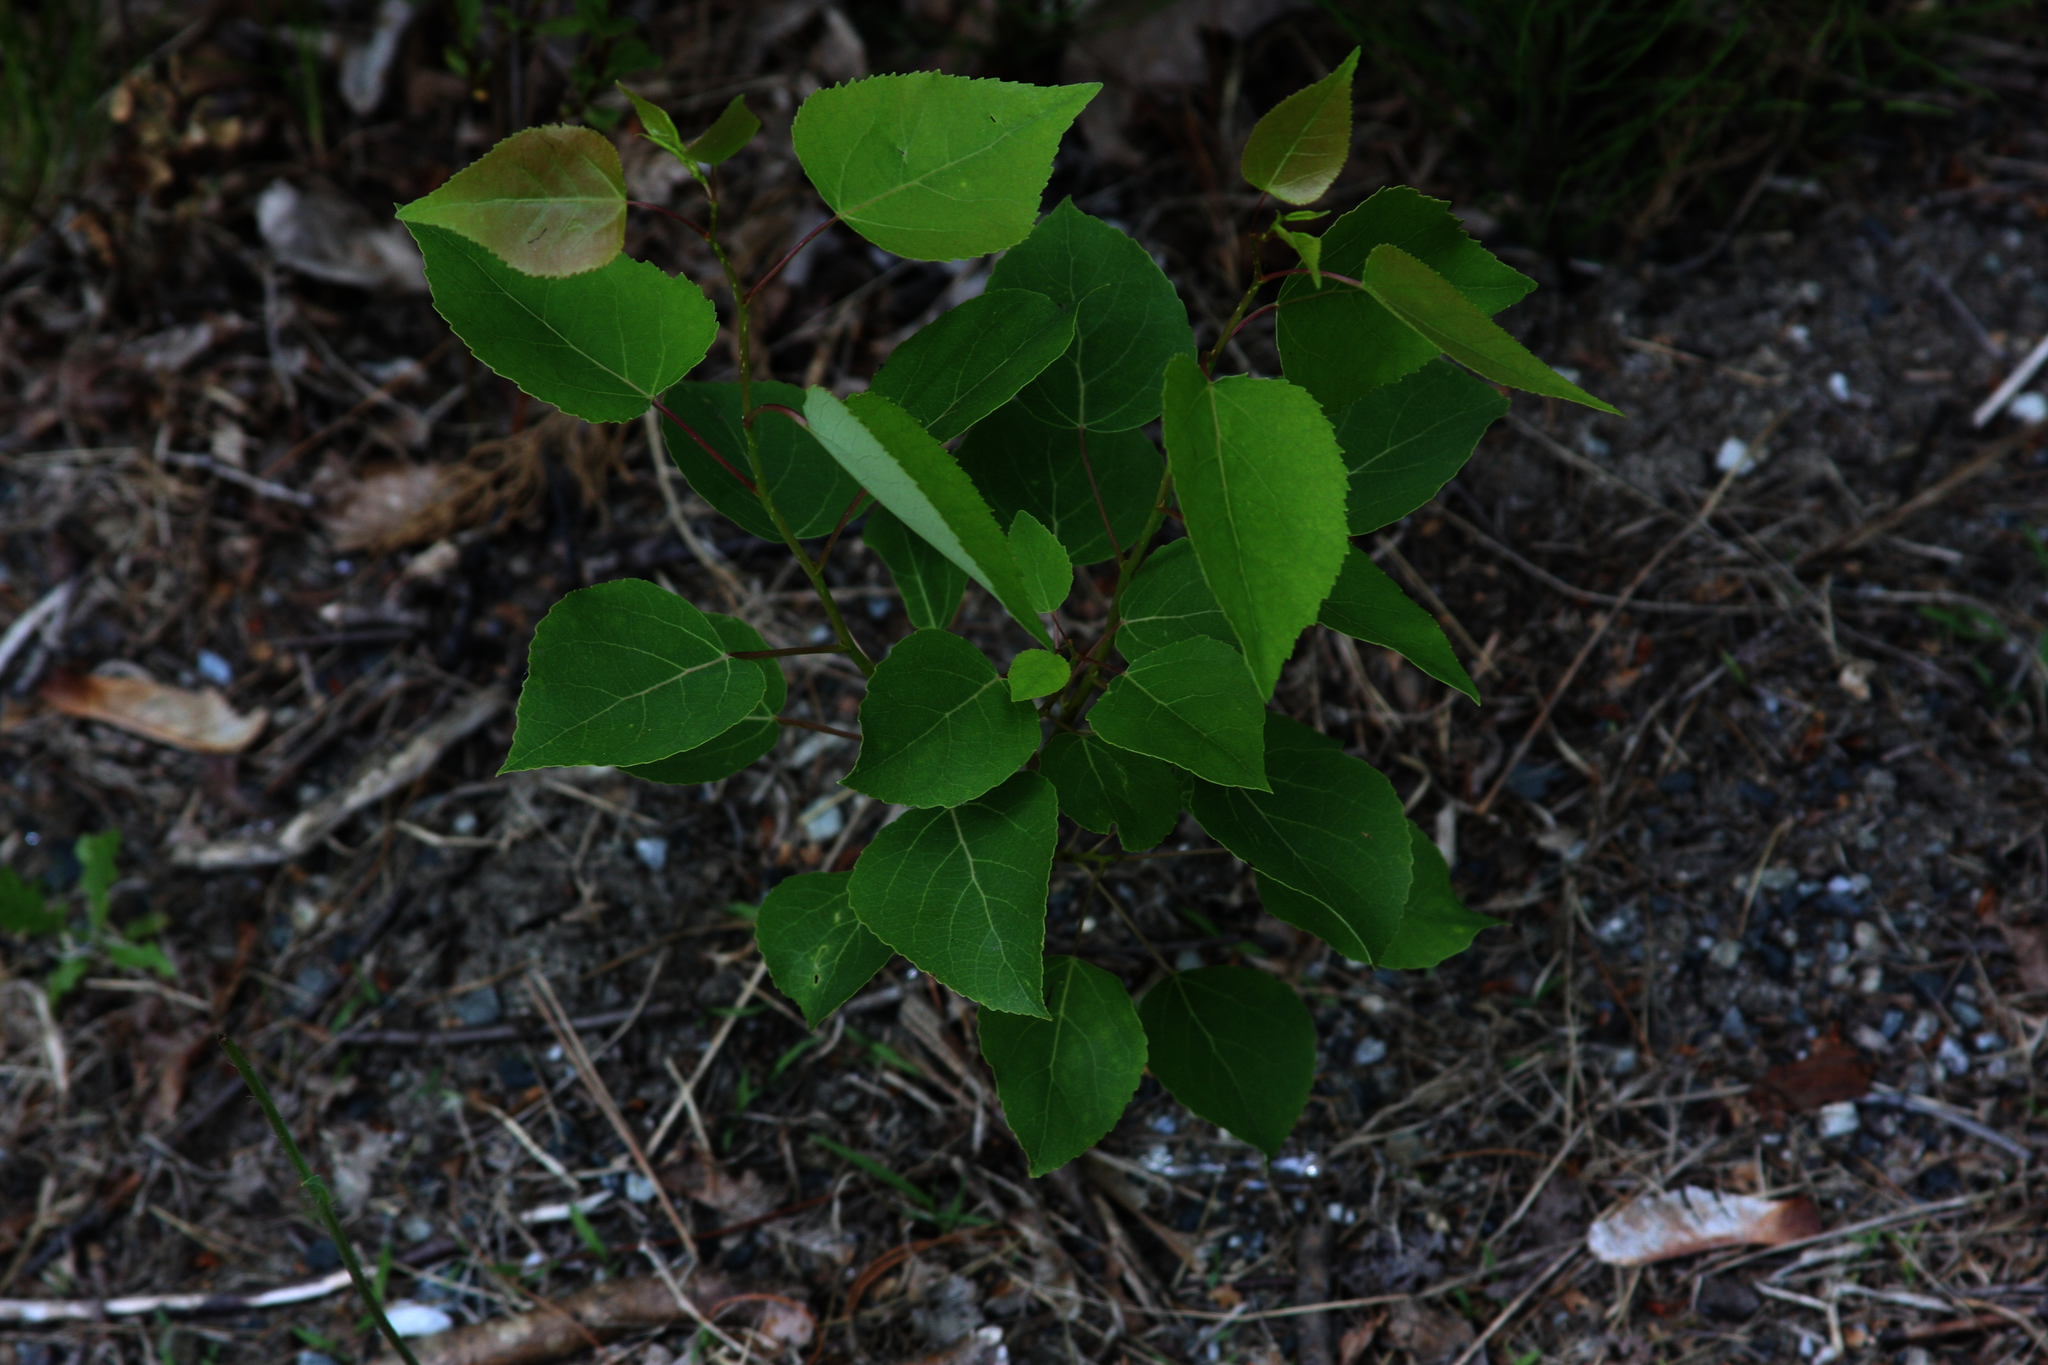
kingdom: Plantae
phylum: Tracheophyta
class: Magnoliopsida
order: Malpighiales
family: Salicaceae
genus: Populus
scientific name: Populus tremuloides
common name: Quaking aspen
